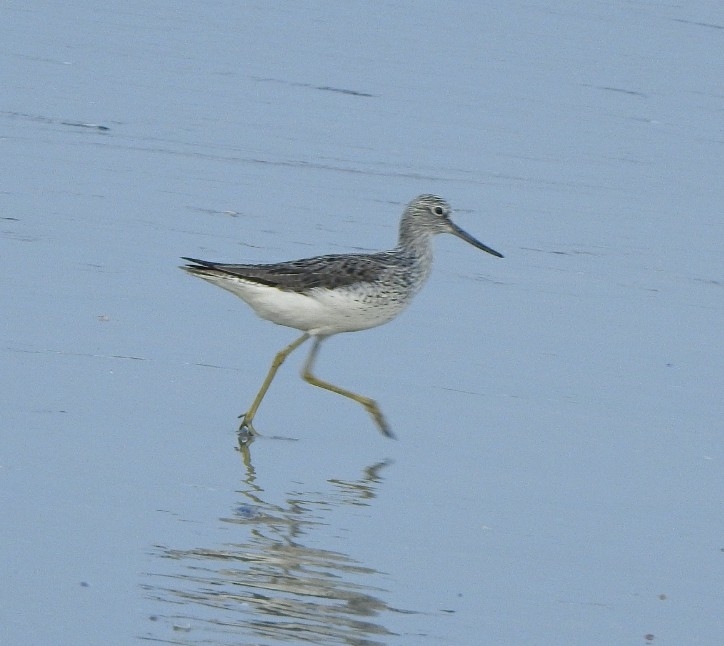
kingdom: Animalia
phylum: Chordata
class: Aves
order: Charadriiformes
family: Scolopacidae
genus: Tringa
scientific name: Tringa nebularia
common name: Common greenshank
